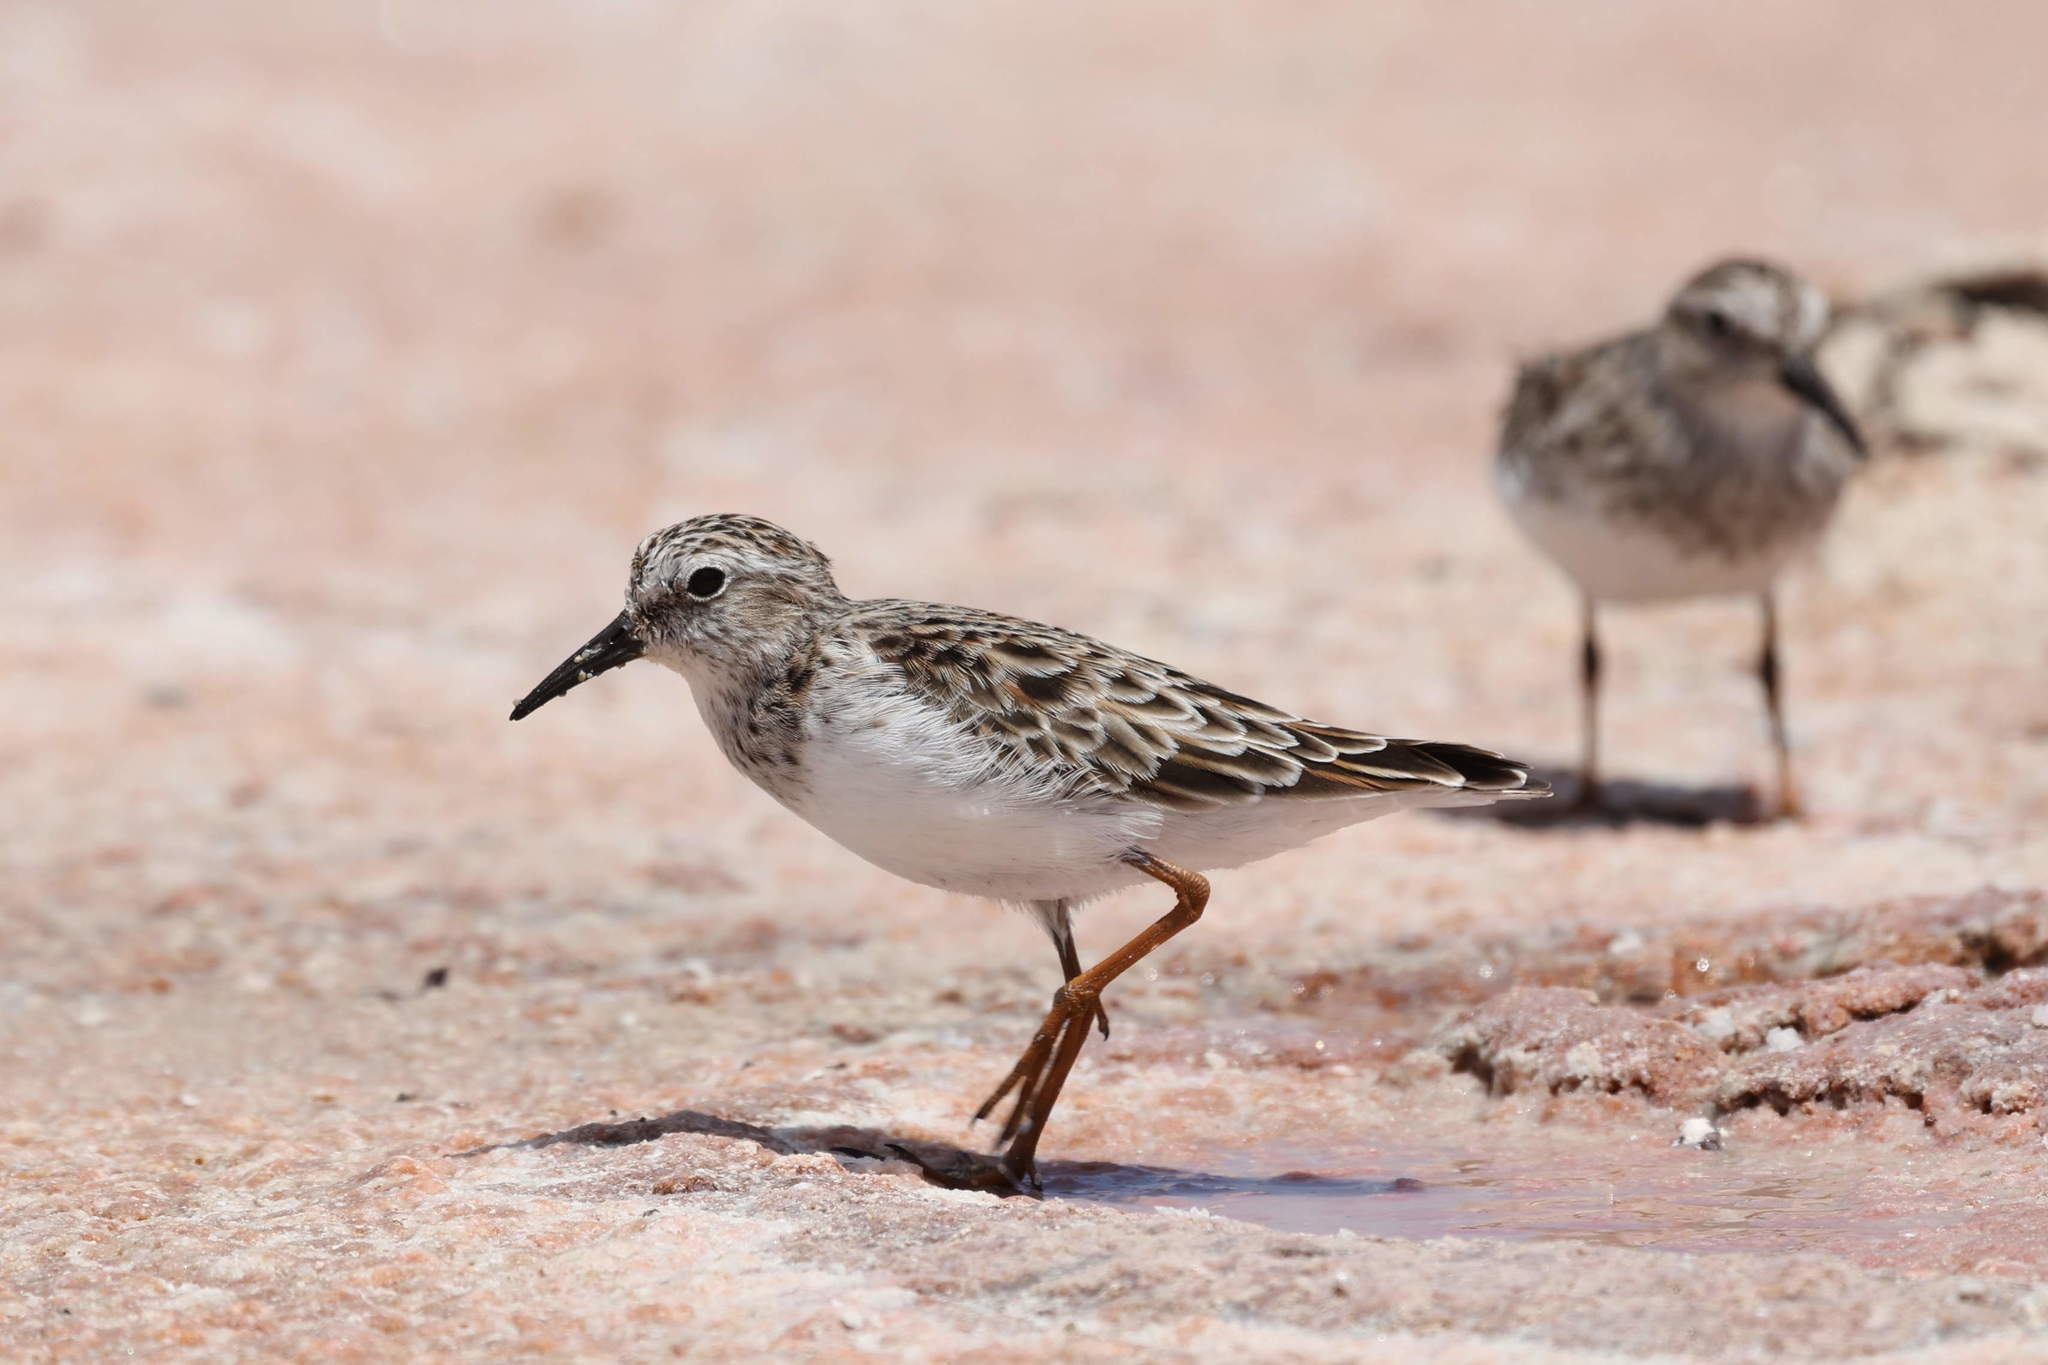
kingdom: Animalia
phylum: Chordata
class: Aves
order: Charadriiformes
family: Scolopacidae
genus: Calidris
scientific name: Calidris minutilla
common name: Least sandpiper
